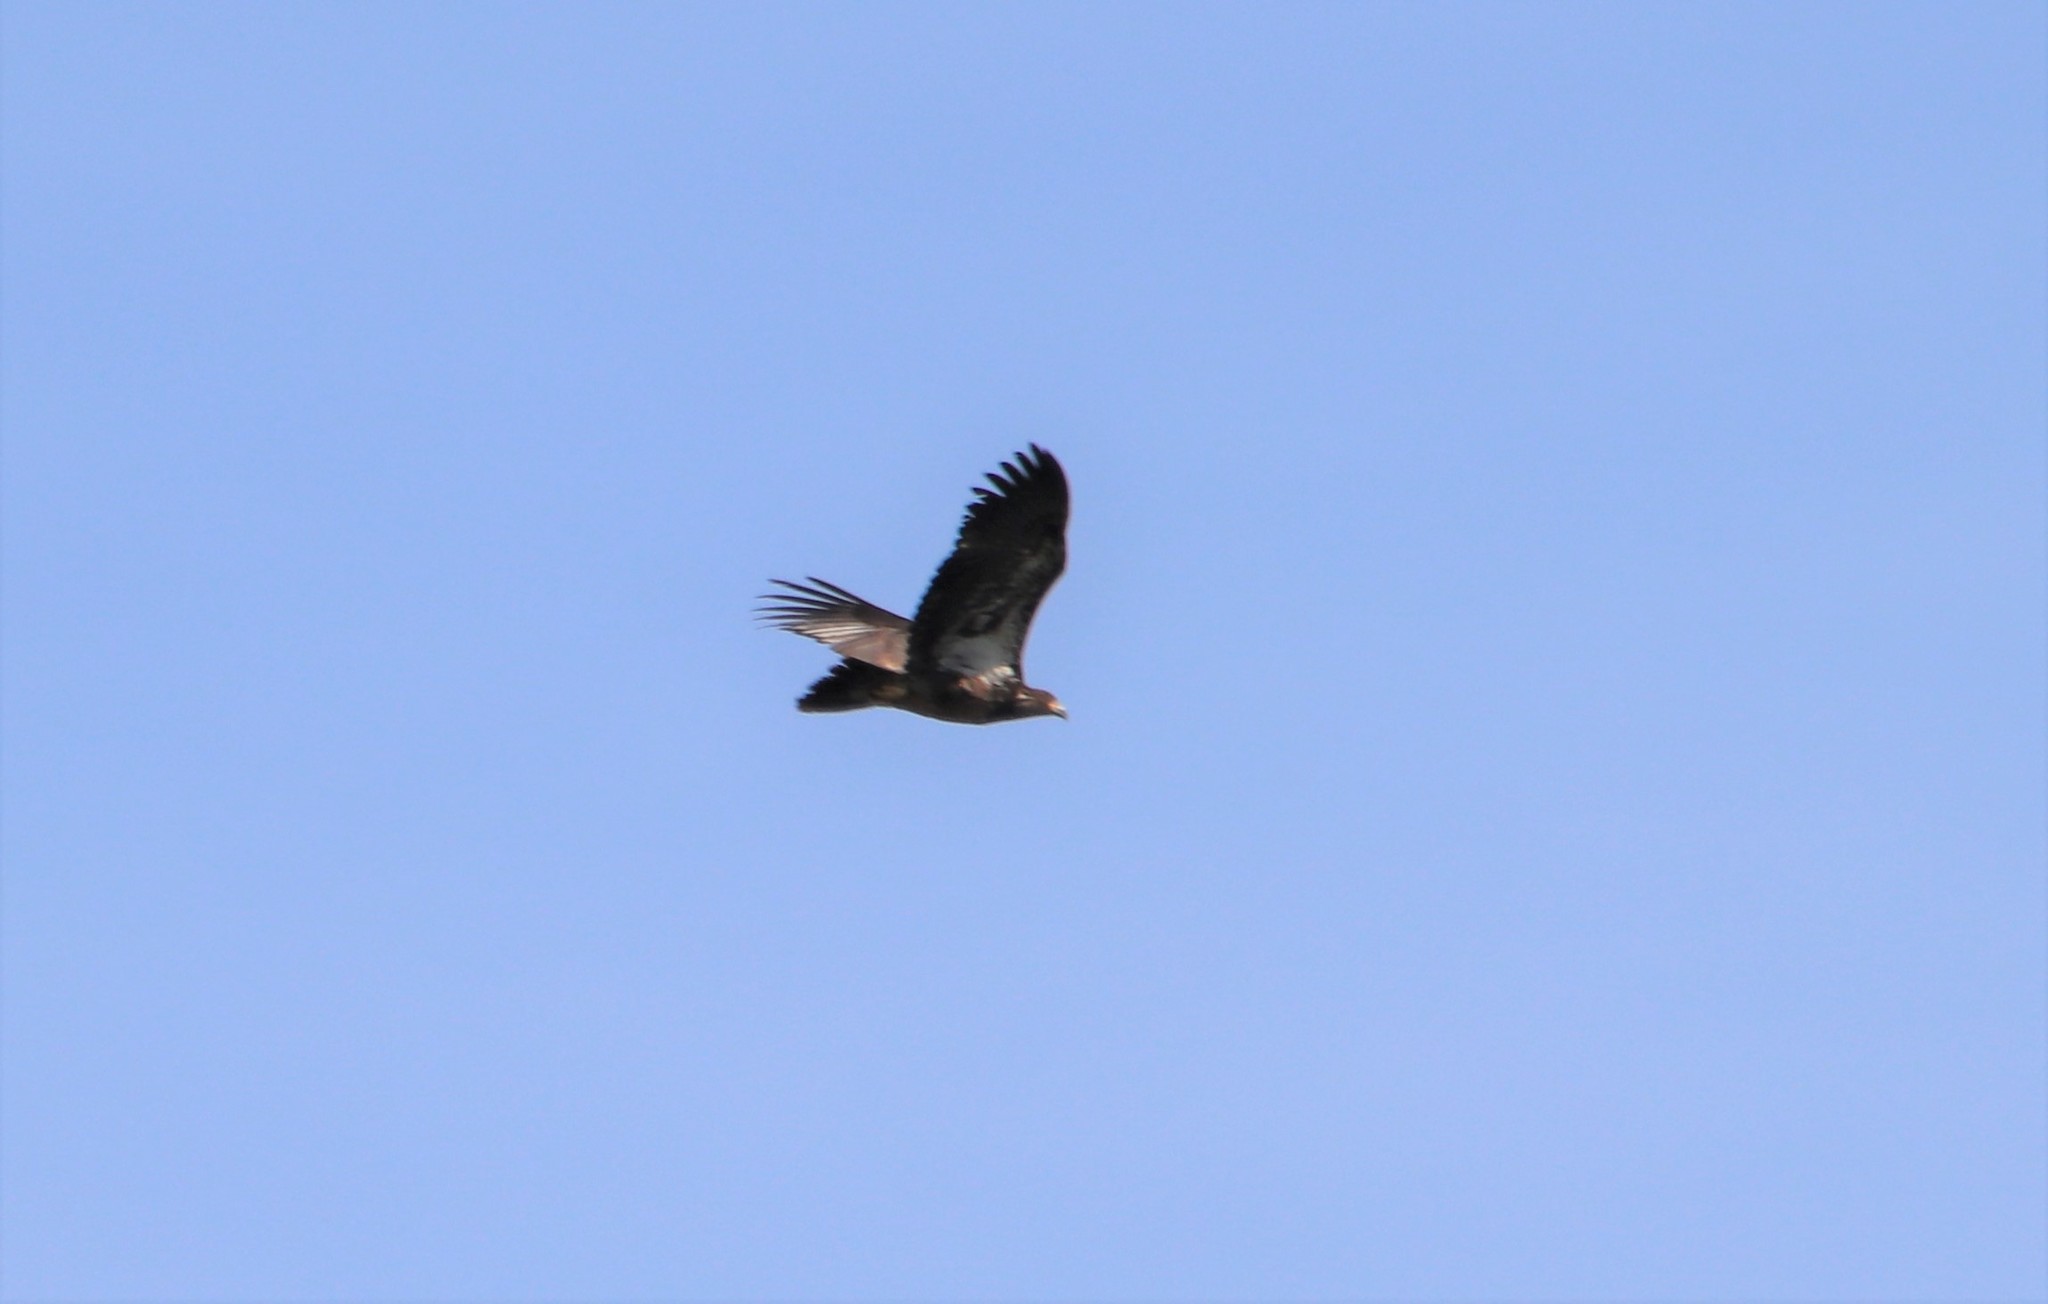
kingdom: Animalia
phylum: Chordata
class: Aves
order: Accipitriformes
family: Accipitridae
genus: Haliaeetus
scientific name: Haliaeetus leucocephalus
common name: Bald eagle
